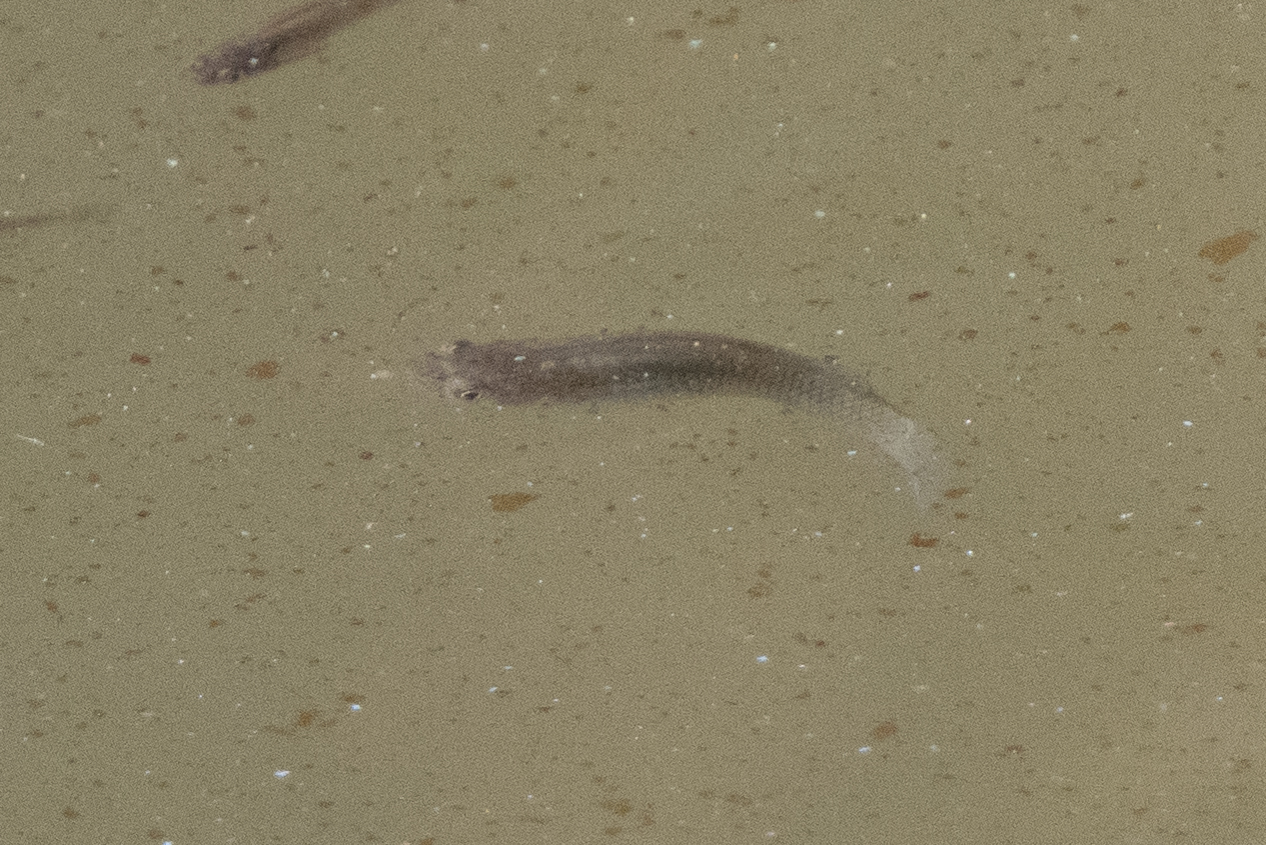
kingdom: Animalia
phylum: Chordata
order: Cyprinodontiformes
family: Poeciliidae
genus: Gambusia
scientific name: Gambusia affinis
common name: Mosquitofish
